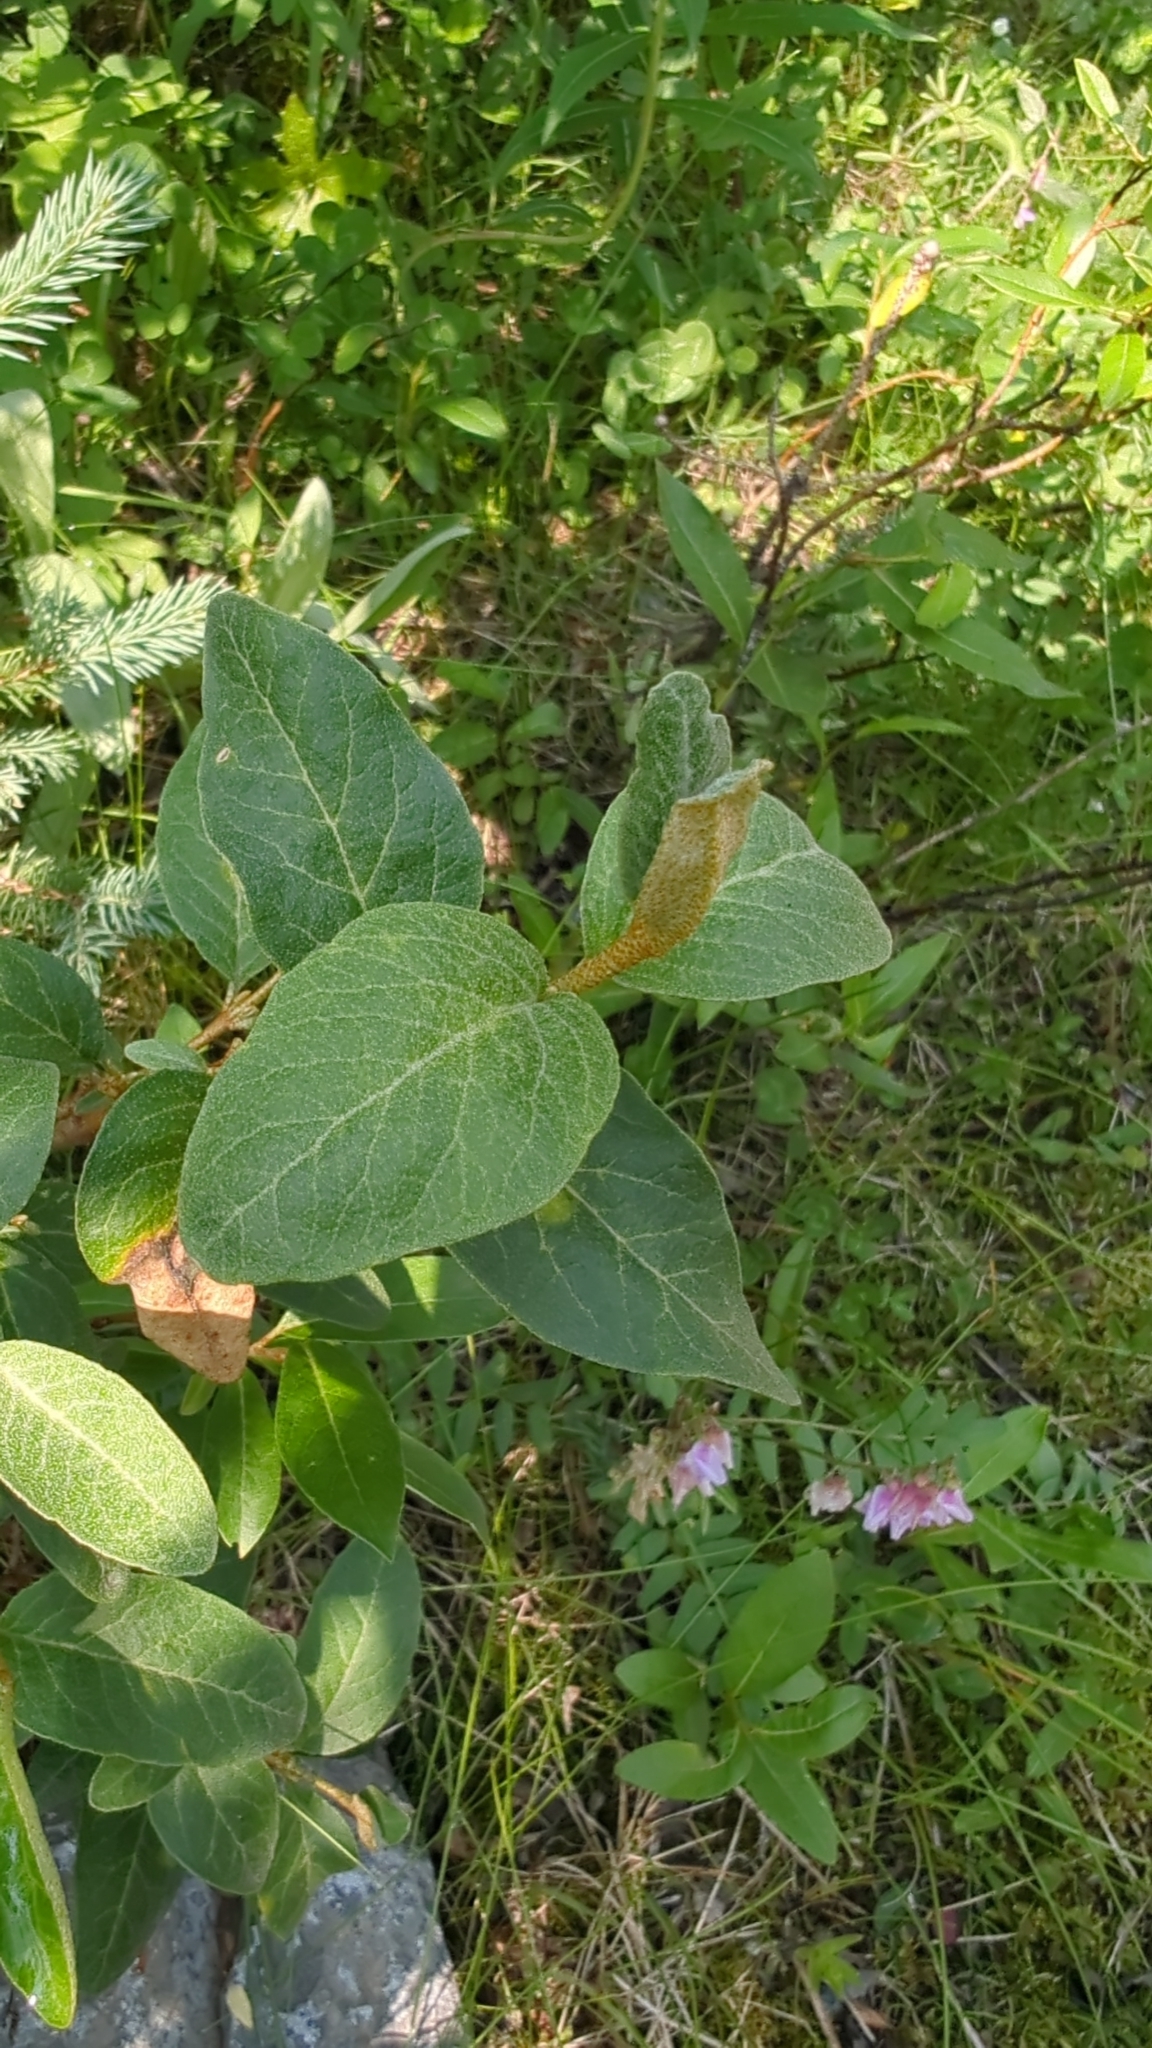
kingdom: Plantae
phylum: Tracheophyta
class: Magnoliopsida
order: Rosales
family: Elaeagnaceae
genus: Shepherdia
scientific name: Shepherdia canadensis
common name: Soapberry
